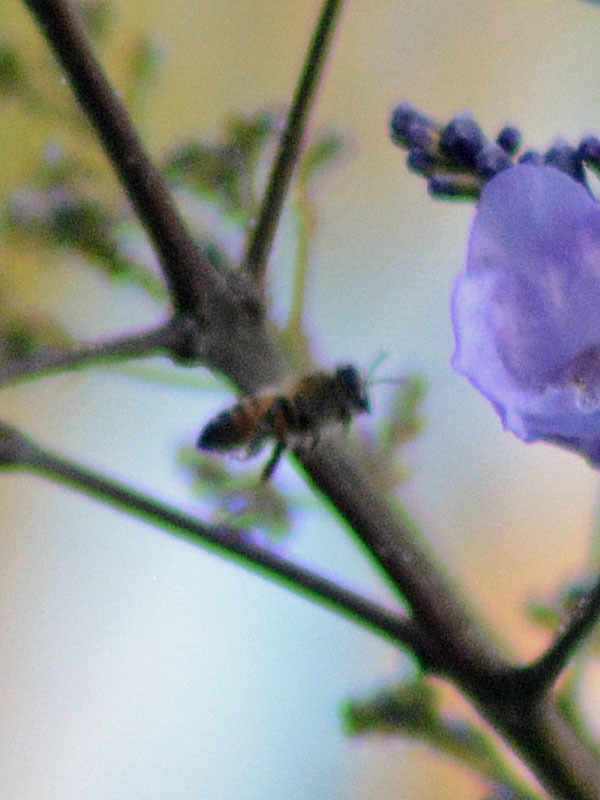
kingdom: Animalia
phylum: Arthropoda
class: Insecta
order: Hymenoptera
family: Apidae
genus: Apis
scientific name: Apis mellifera
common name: Honey bee
